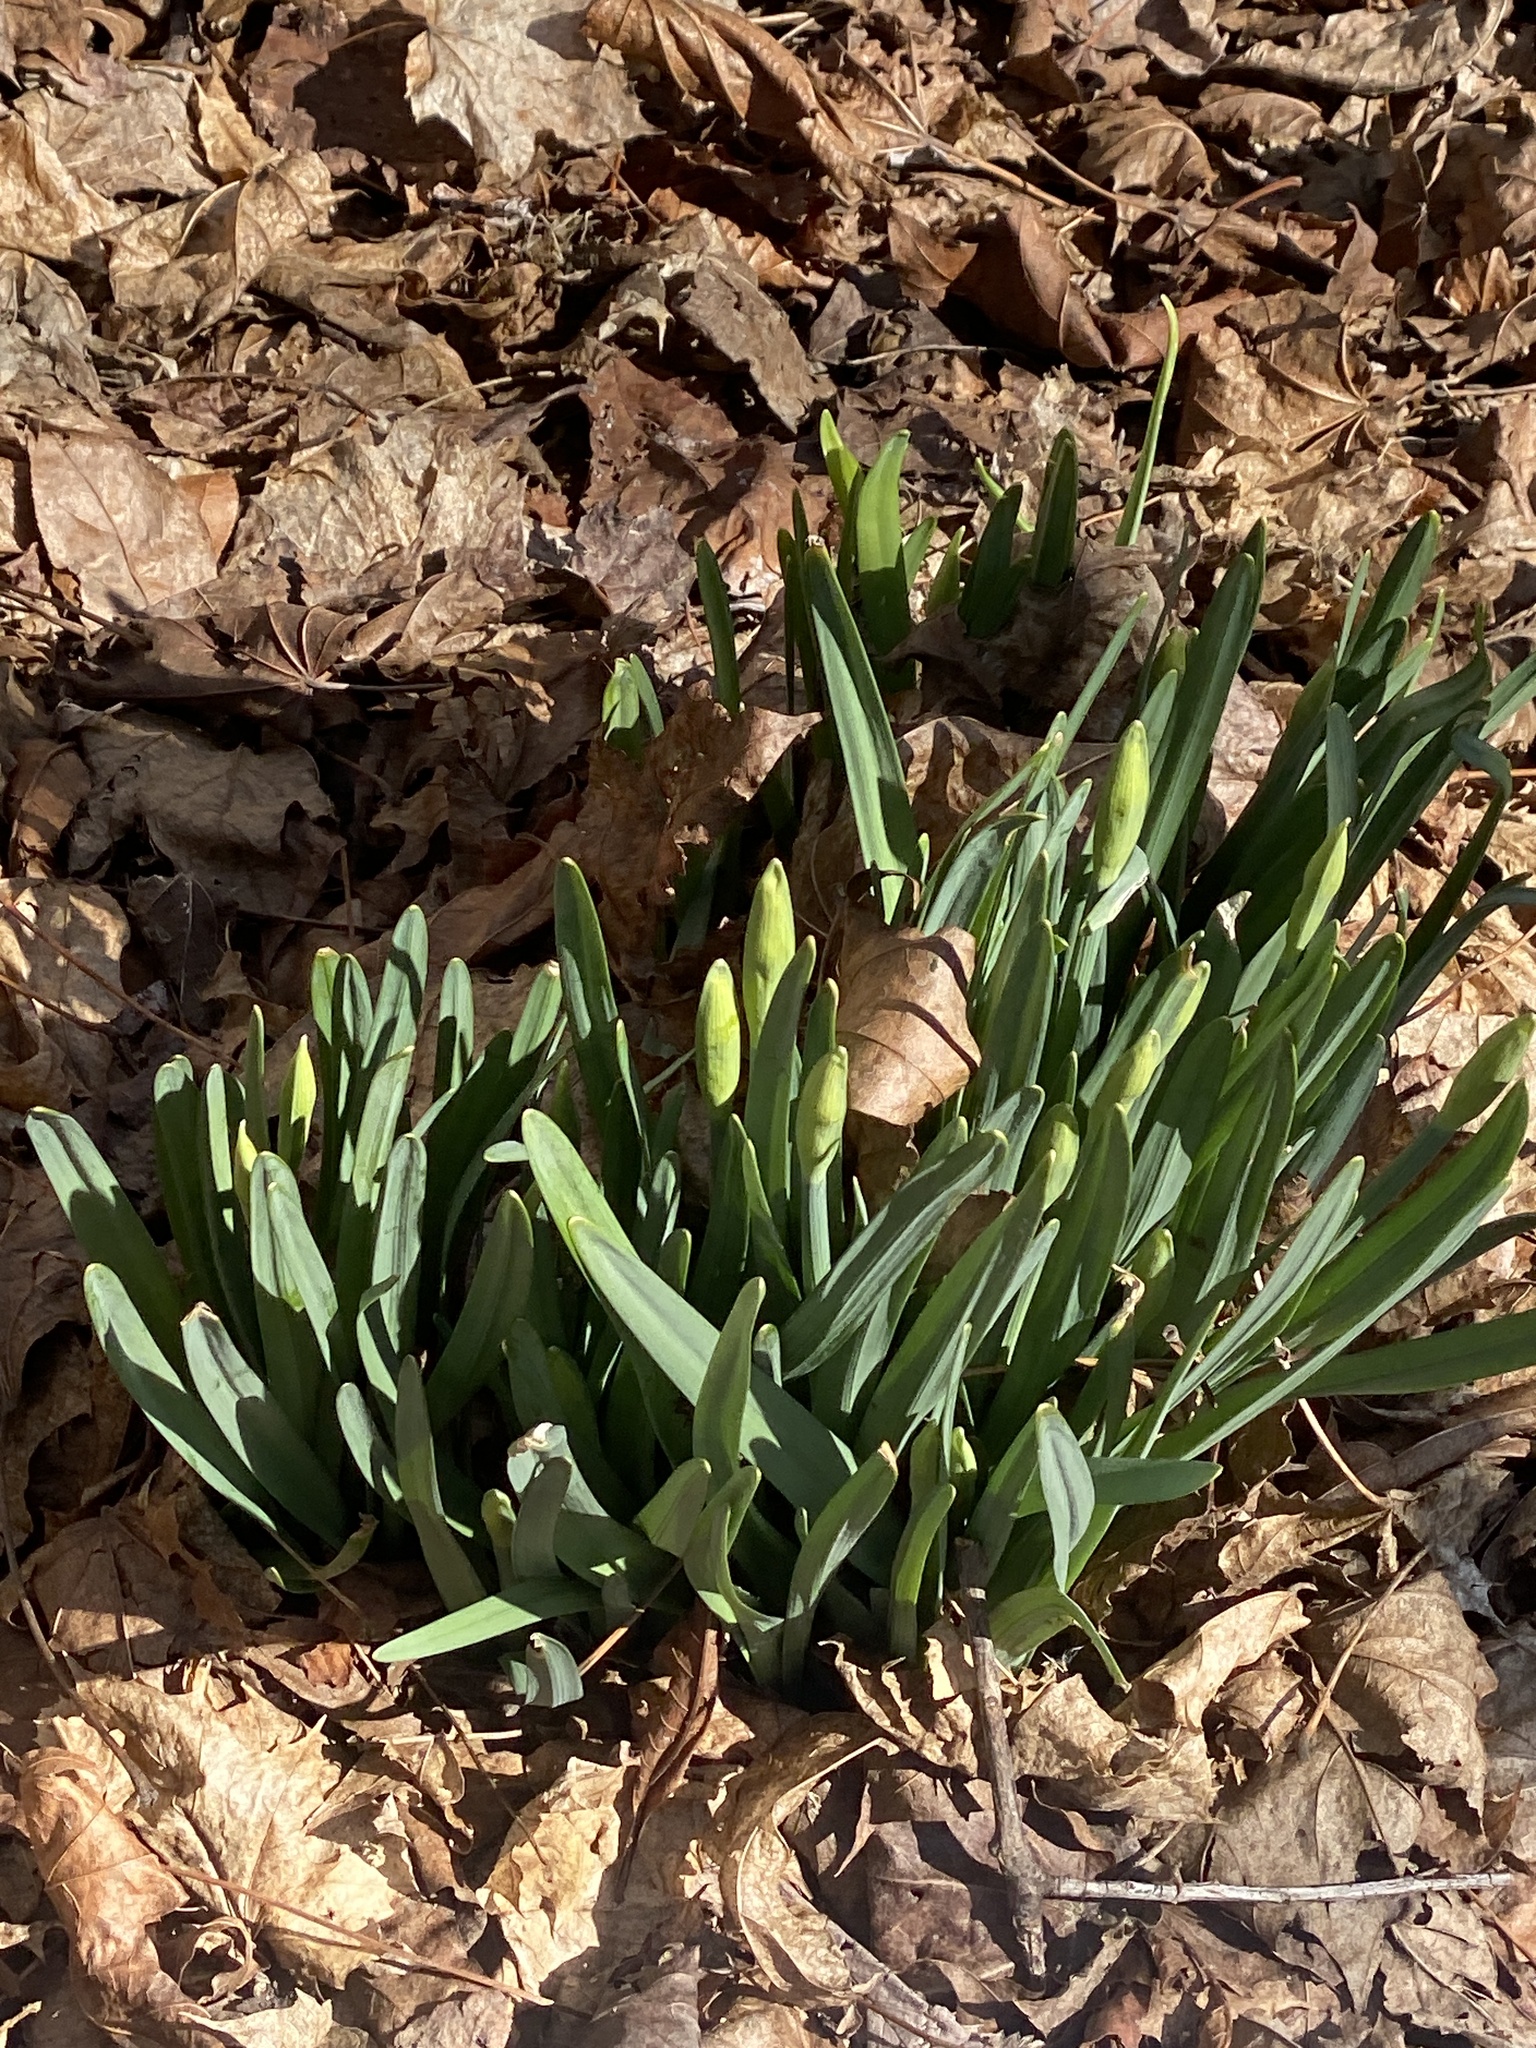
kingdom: Plantae
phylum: Tracheophyta
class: Liliopsida
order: Asparagales
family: Amaryllidaceae
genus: Narcissus
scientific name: Narcissus
